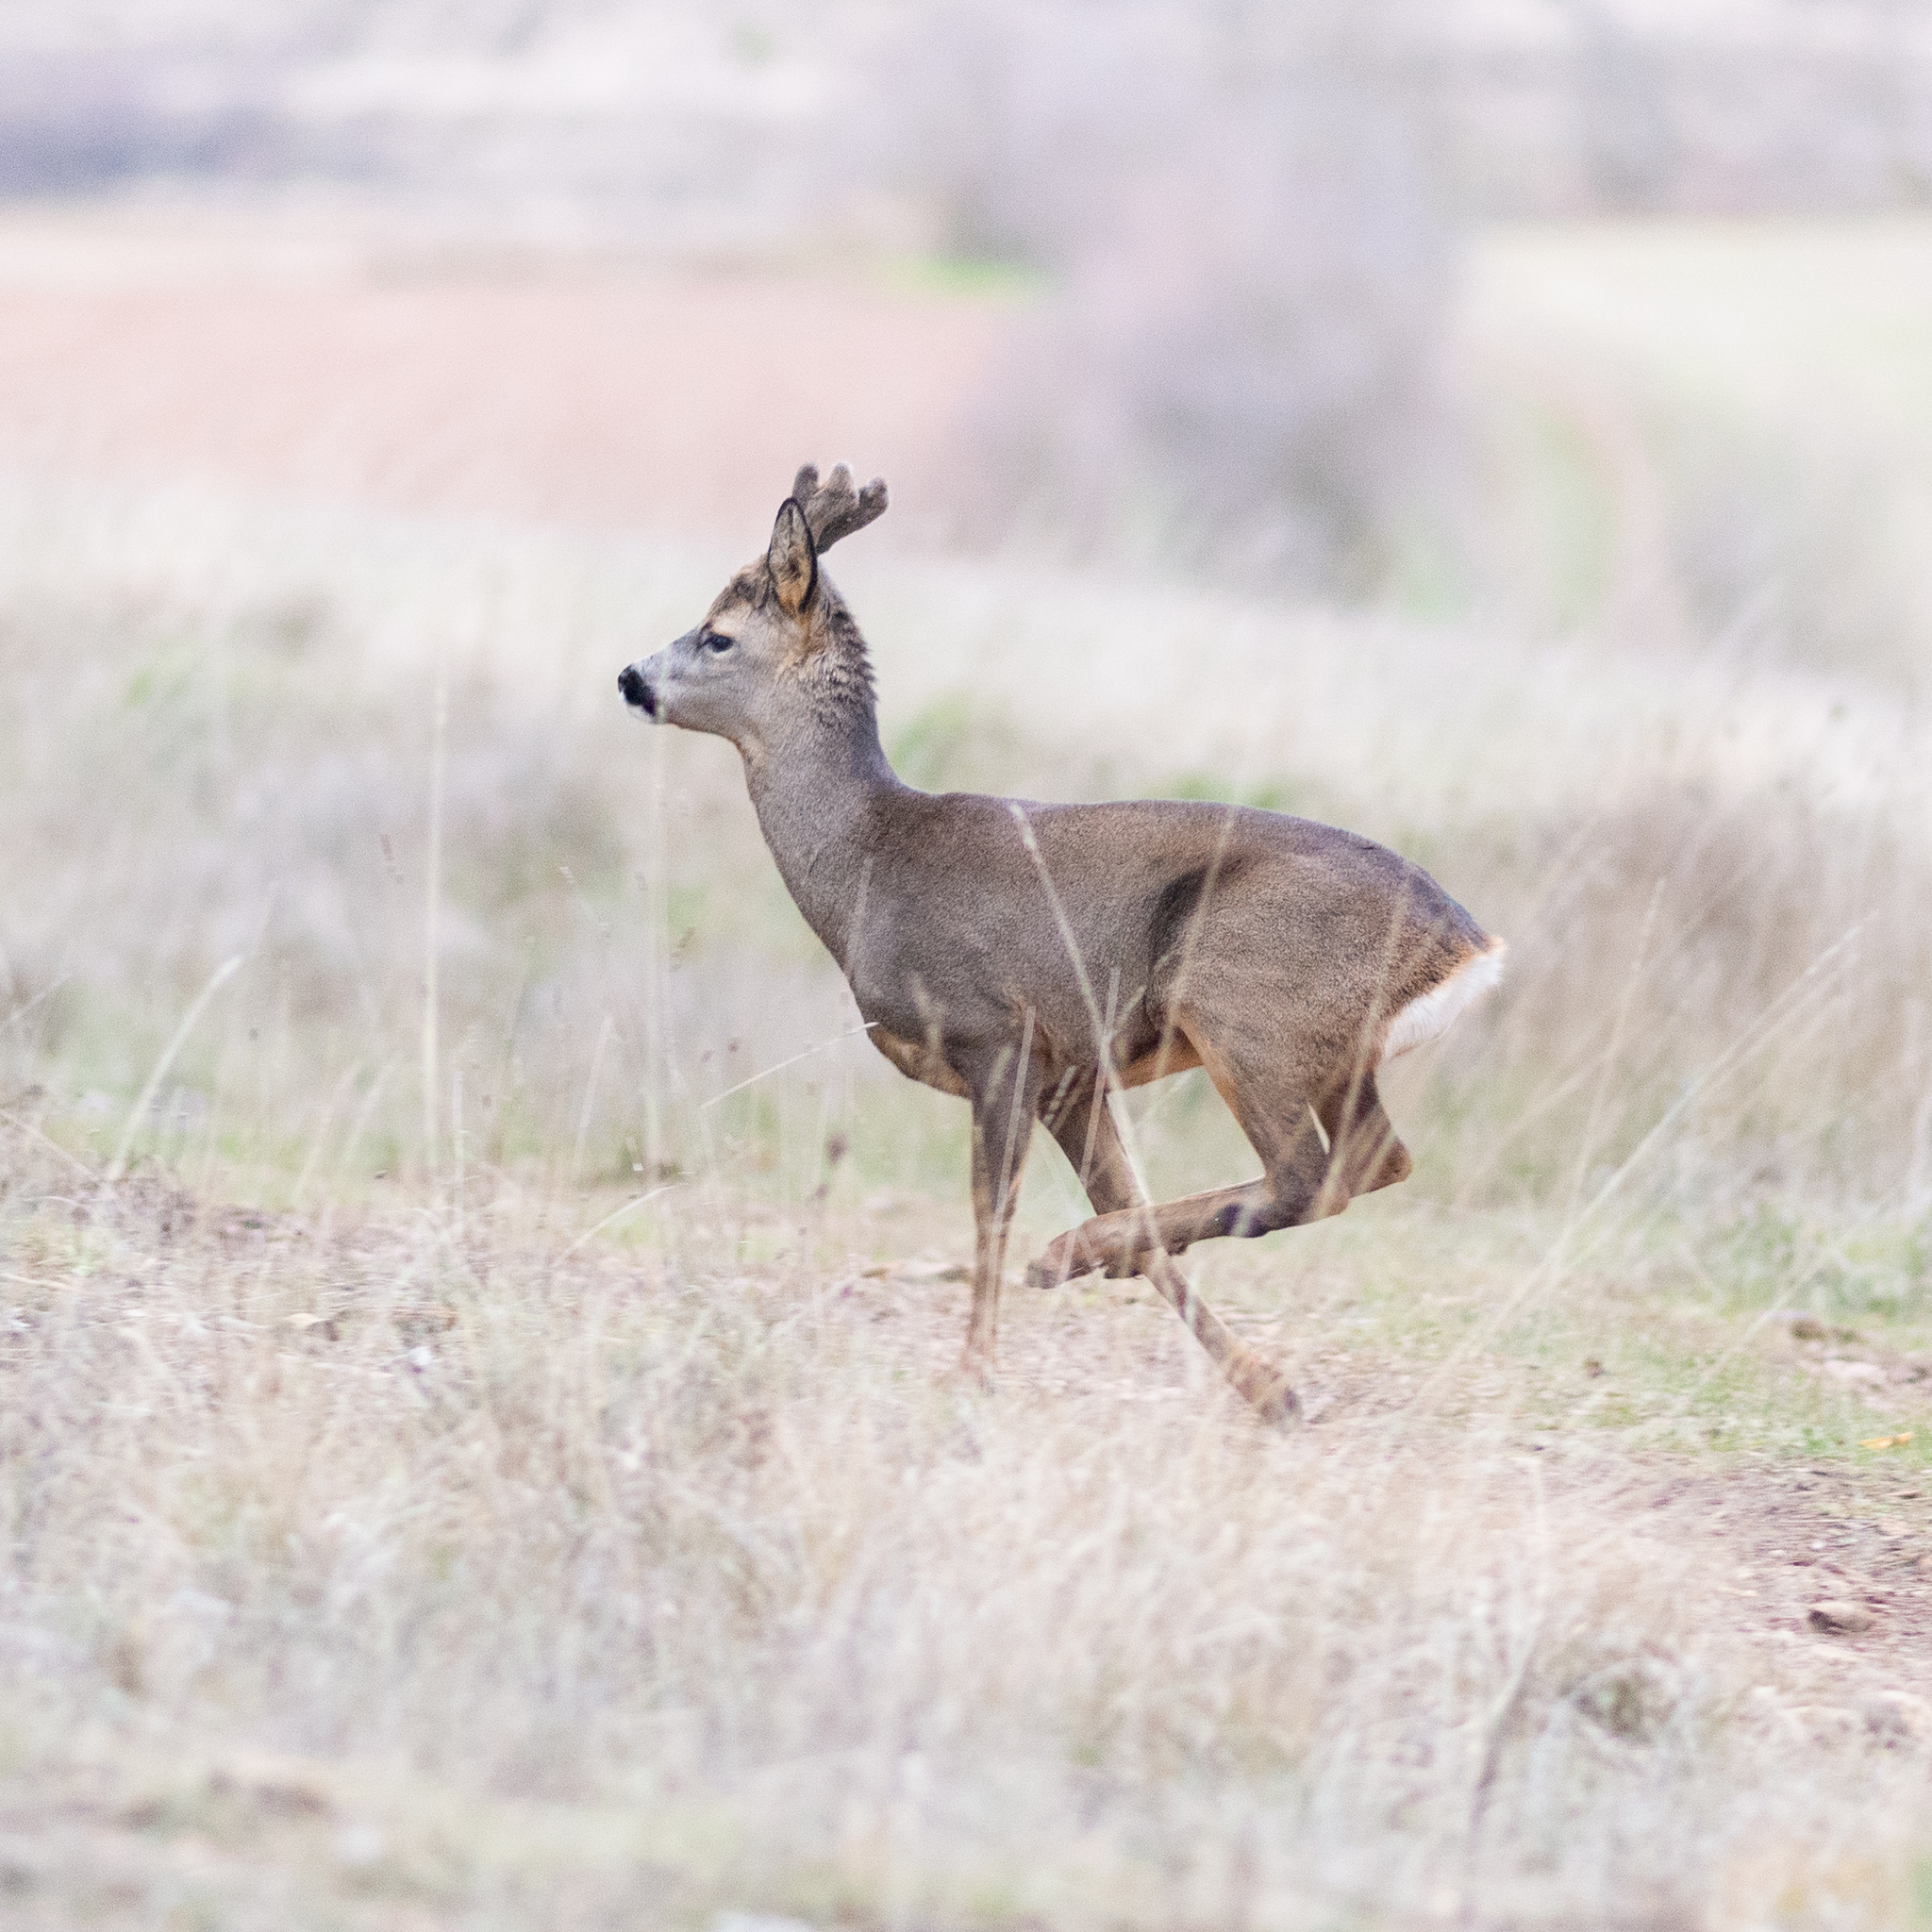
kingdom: Animalia
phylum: Chordata
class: Mammalia
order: Artiodactyla
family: Cervidae
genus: Capreolus
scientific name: Capreolus capreolus
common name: Western roe deer
